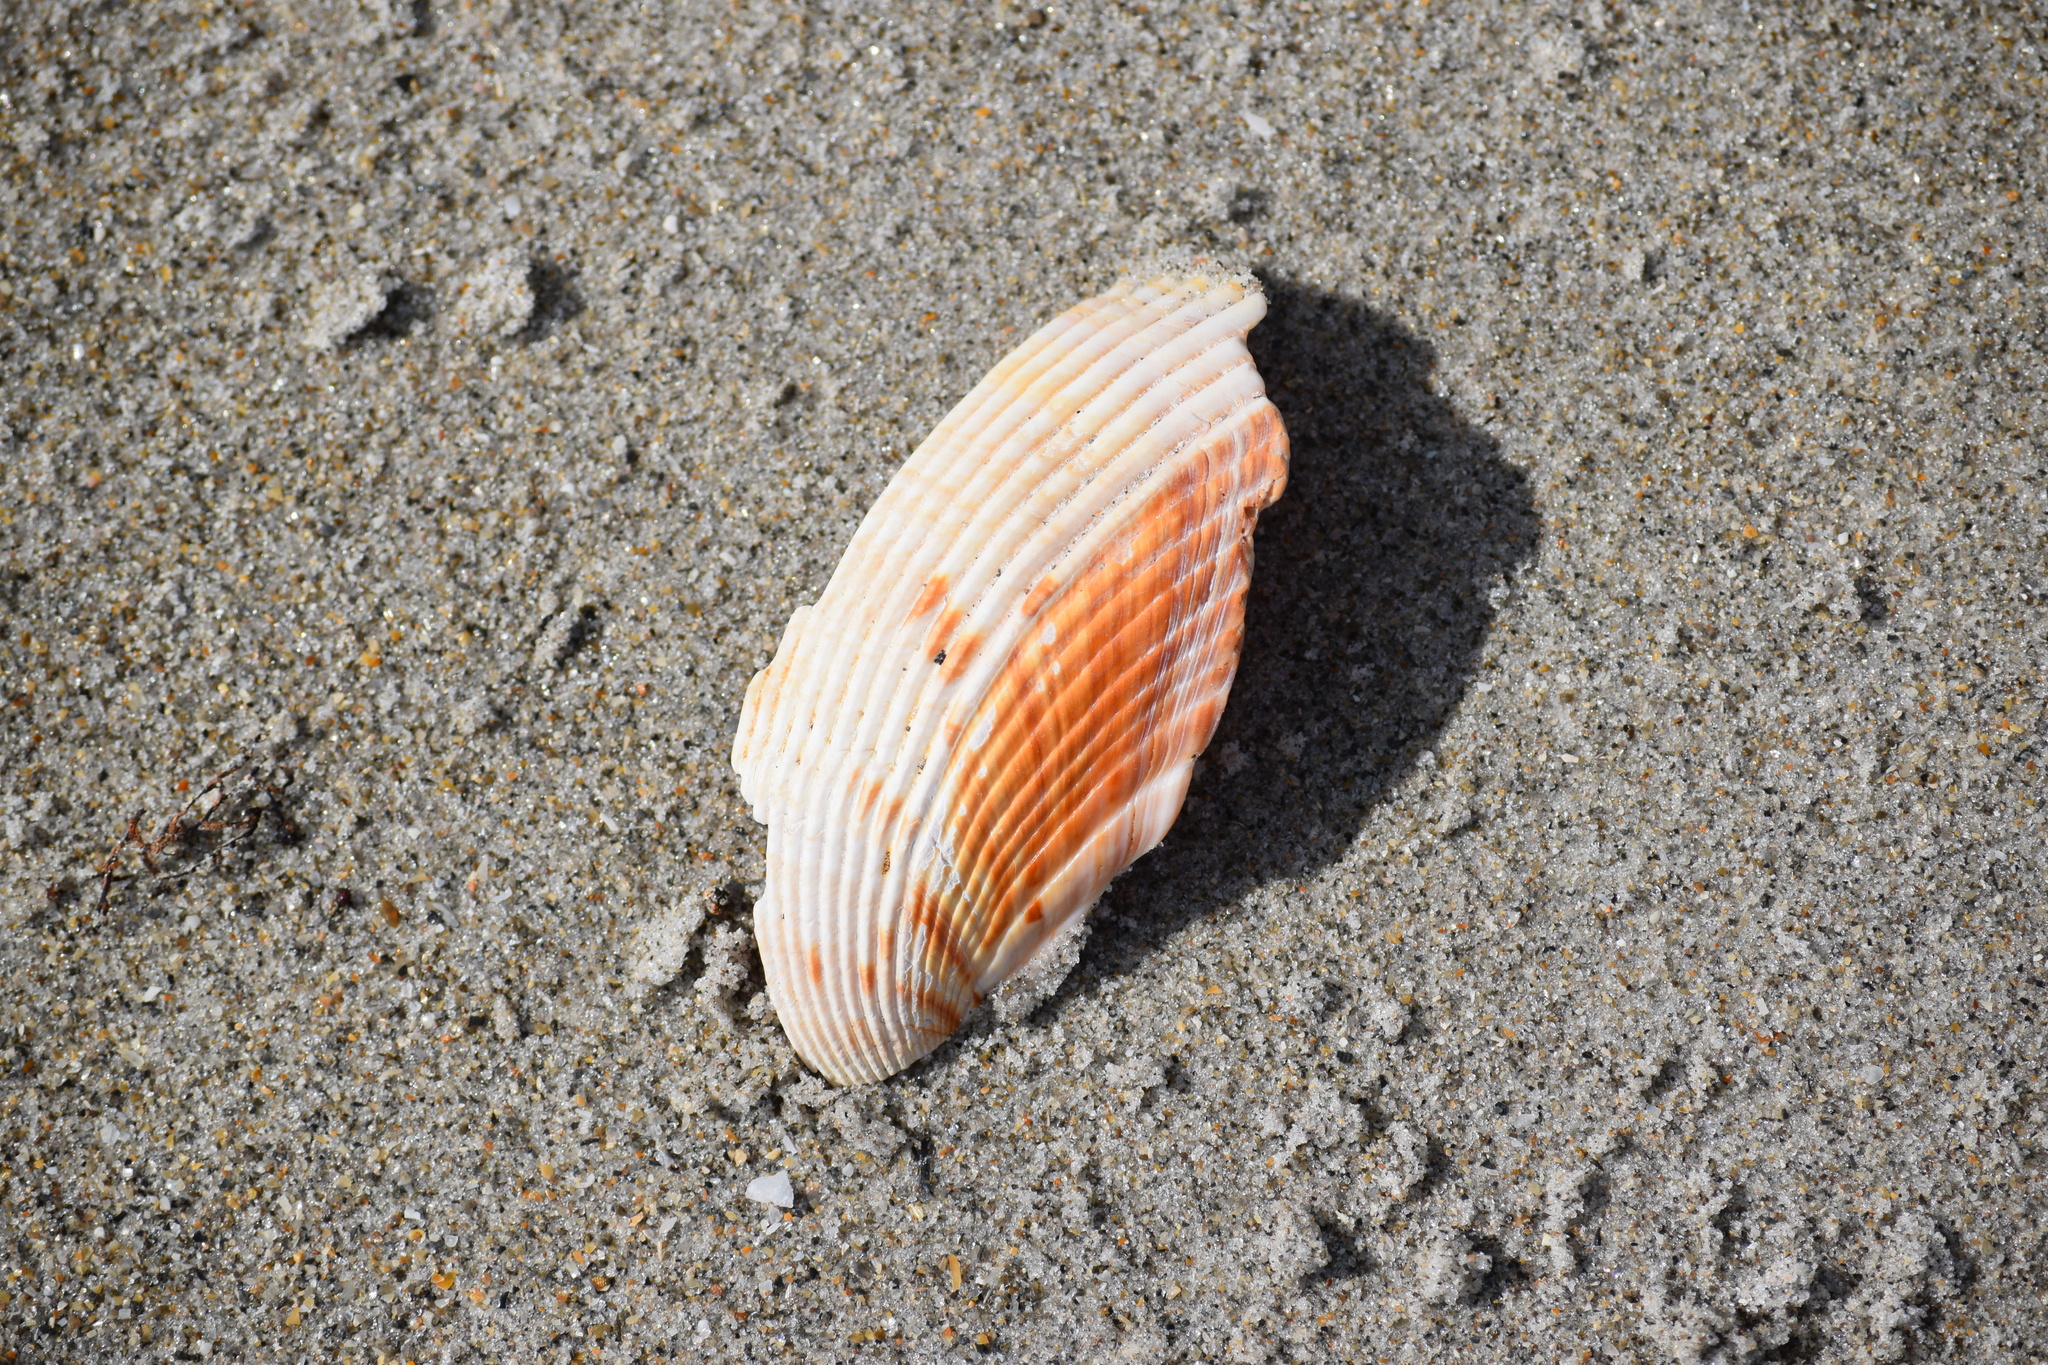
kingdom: Animalia
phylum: Mollusca
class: Bivalvia
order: Cardiida
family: Cardiidae
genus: Dinocardium
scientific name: Dinocardium robustum
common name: Atlantic giant cockle
